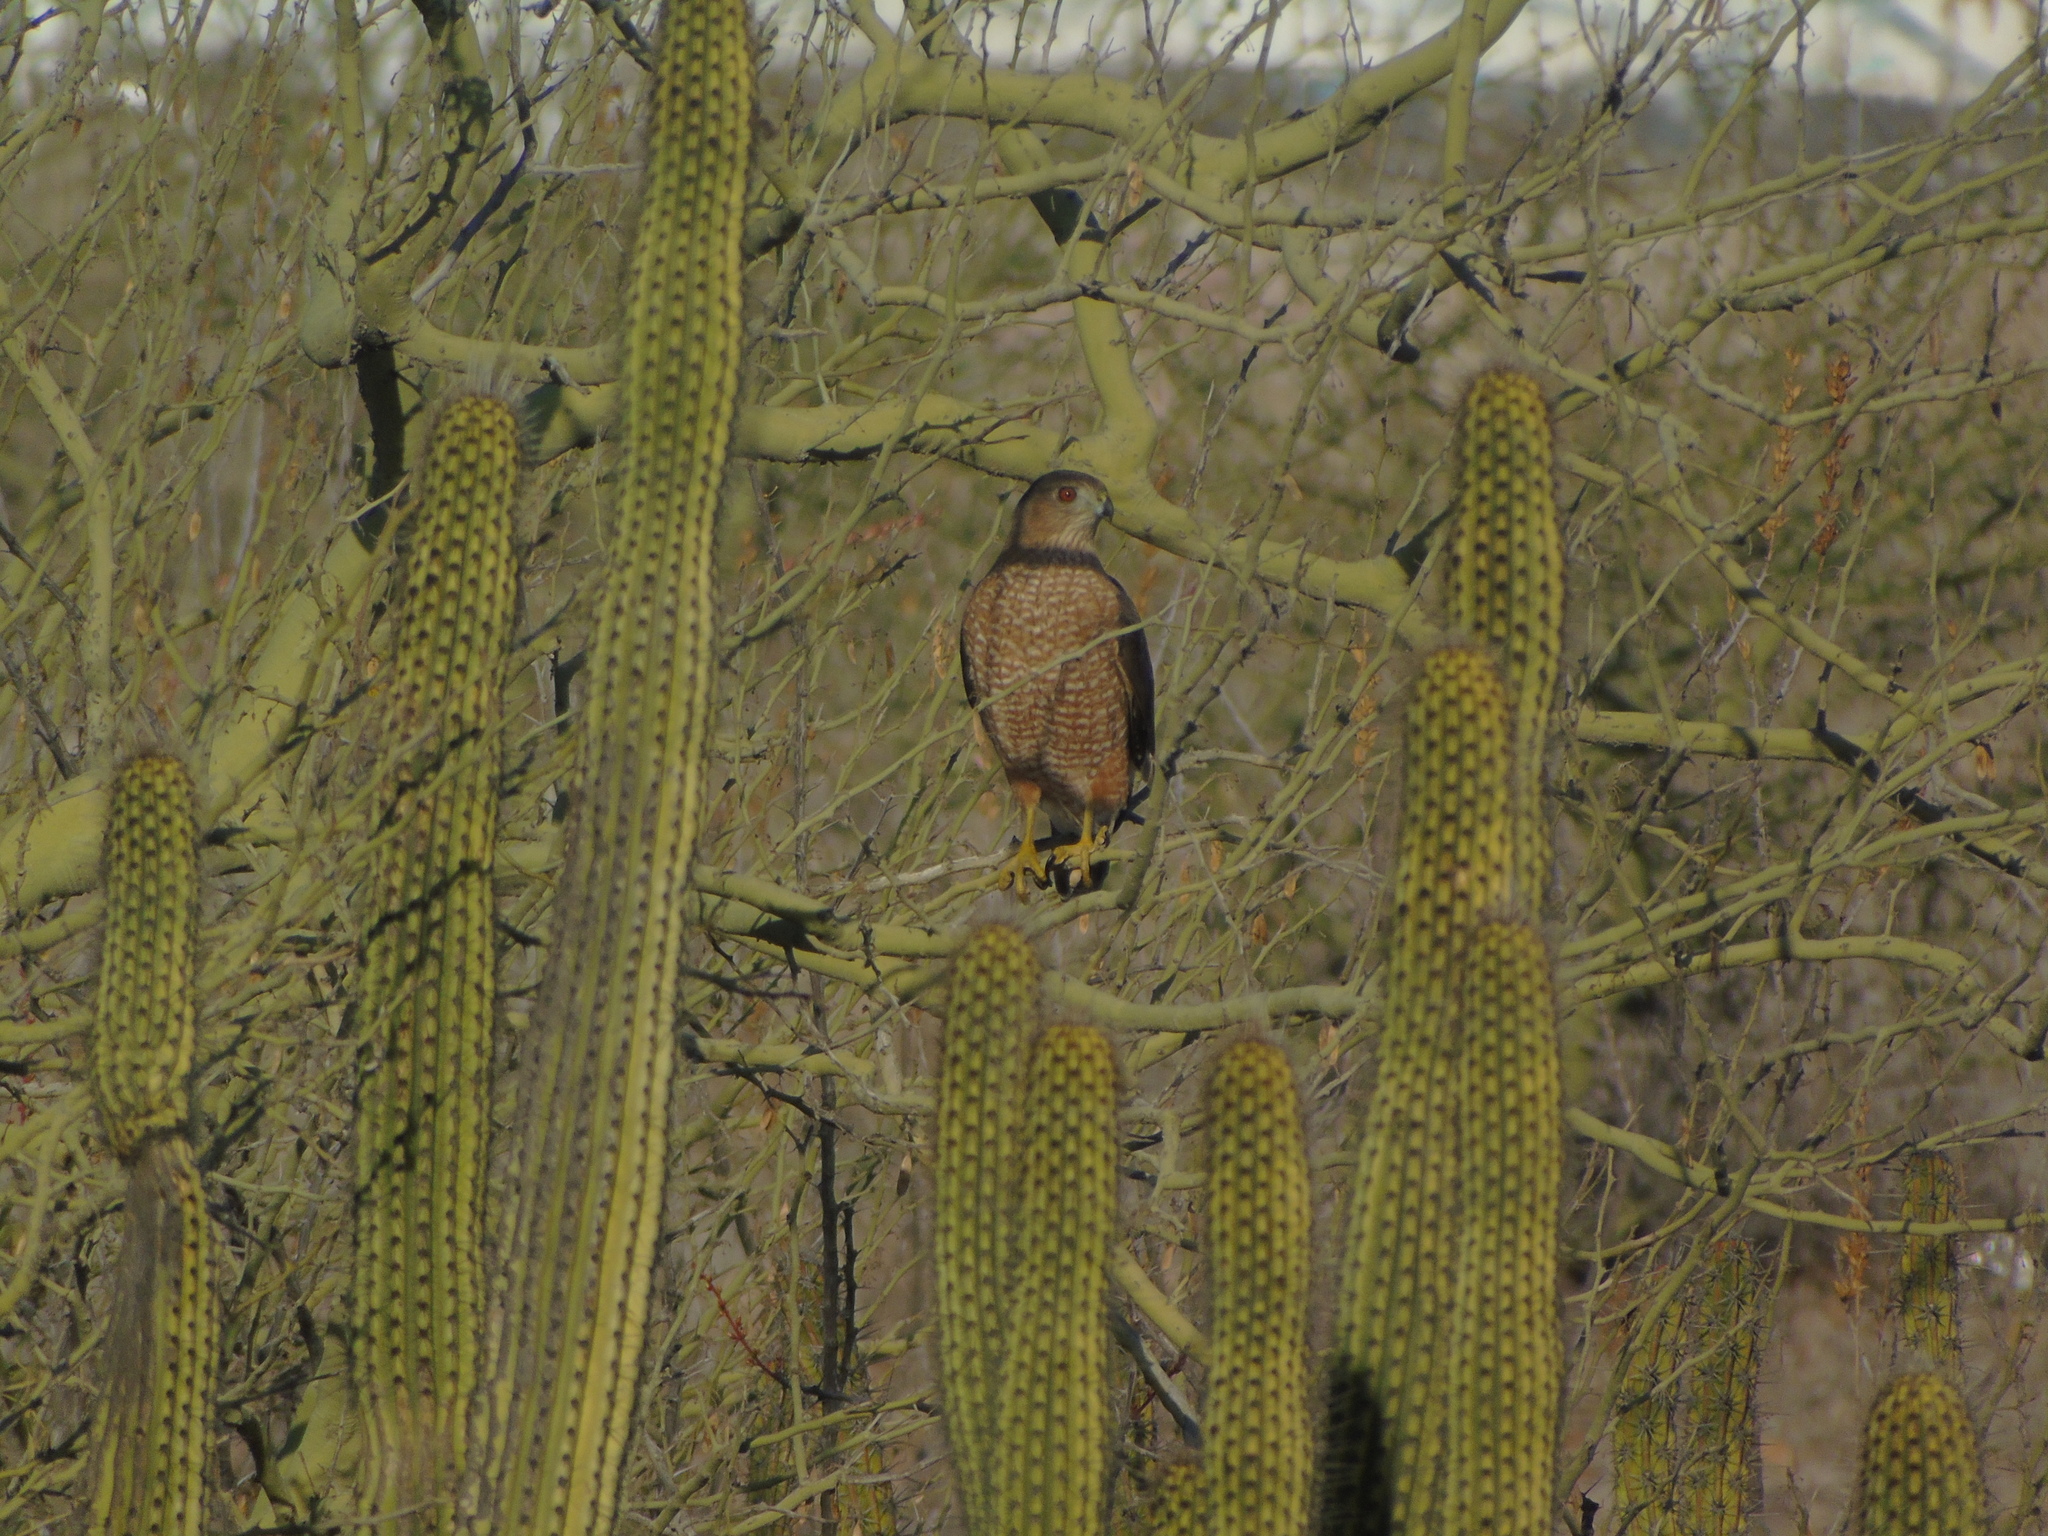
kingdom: Animalia
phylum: Chordata
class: Aves
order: Accipitriformes
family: Accipitridae
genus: Accipiter
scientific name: Accipiter cooperii
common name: Cooper's hawk
